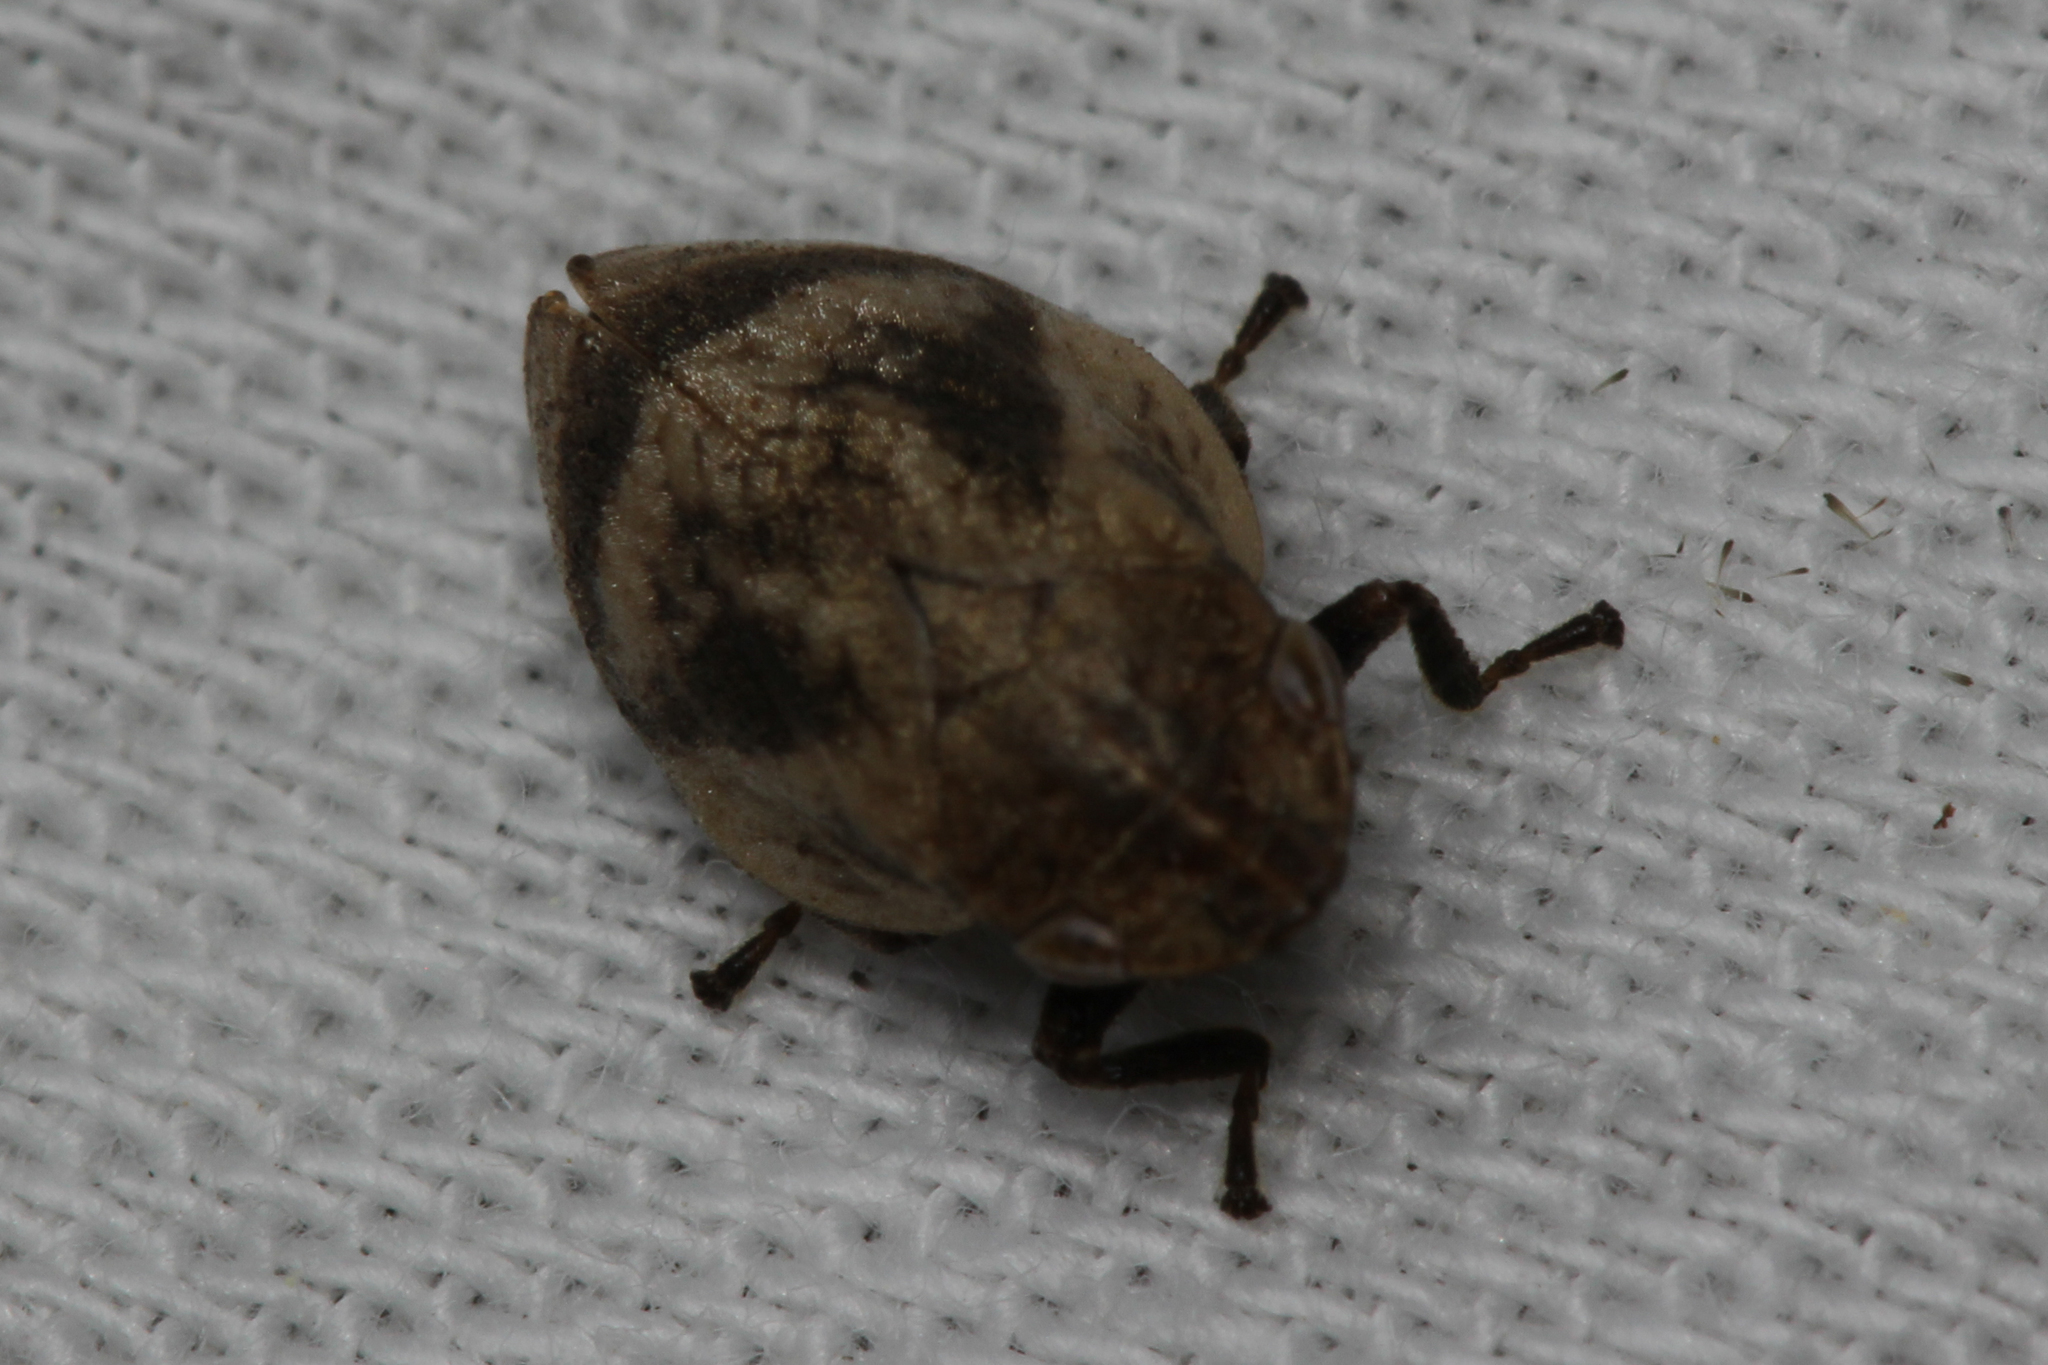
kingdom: Animalia
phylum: Arthropoda
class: Insecta
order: Hemiptera
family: Aphrophoridae
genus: Lepyronia
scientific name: Lepyronia coleoptrata
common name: Leafhopper
